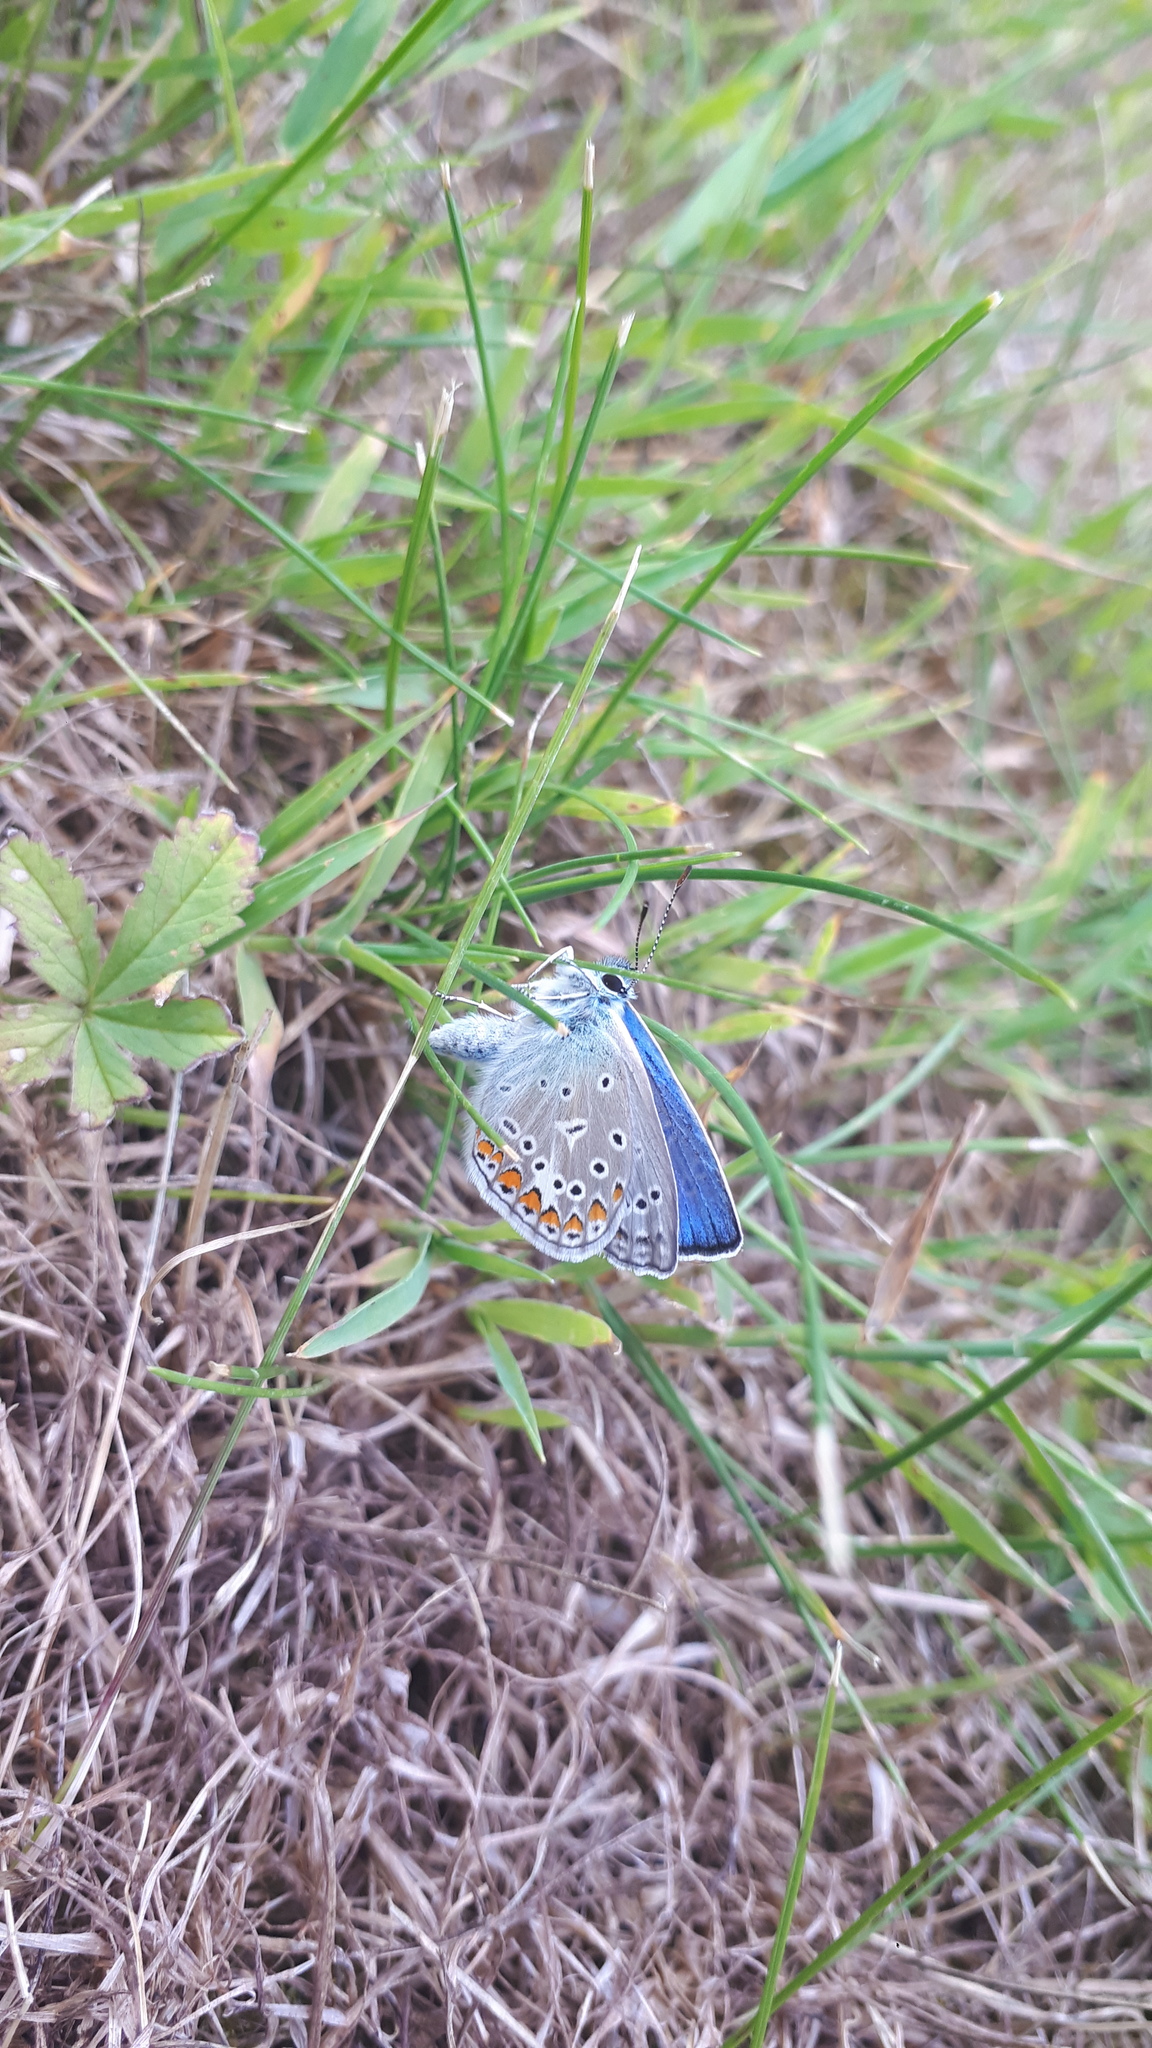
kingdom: Animalia
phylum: Arthropoda
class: Insecta
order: Lepidoptera
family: Lycaenidae
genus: Polyommatus
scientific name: Polyommatus icarus
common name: Common blue
